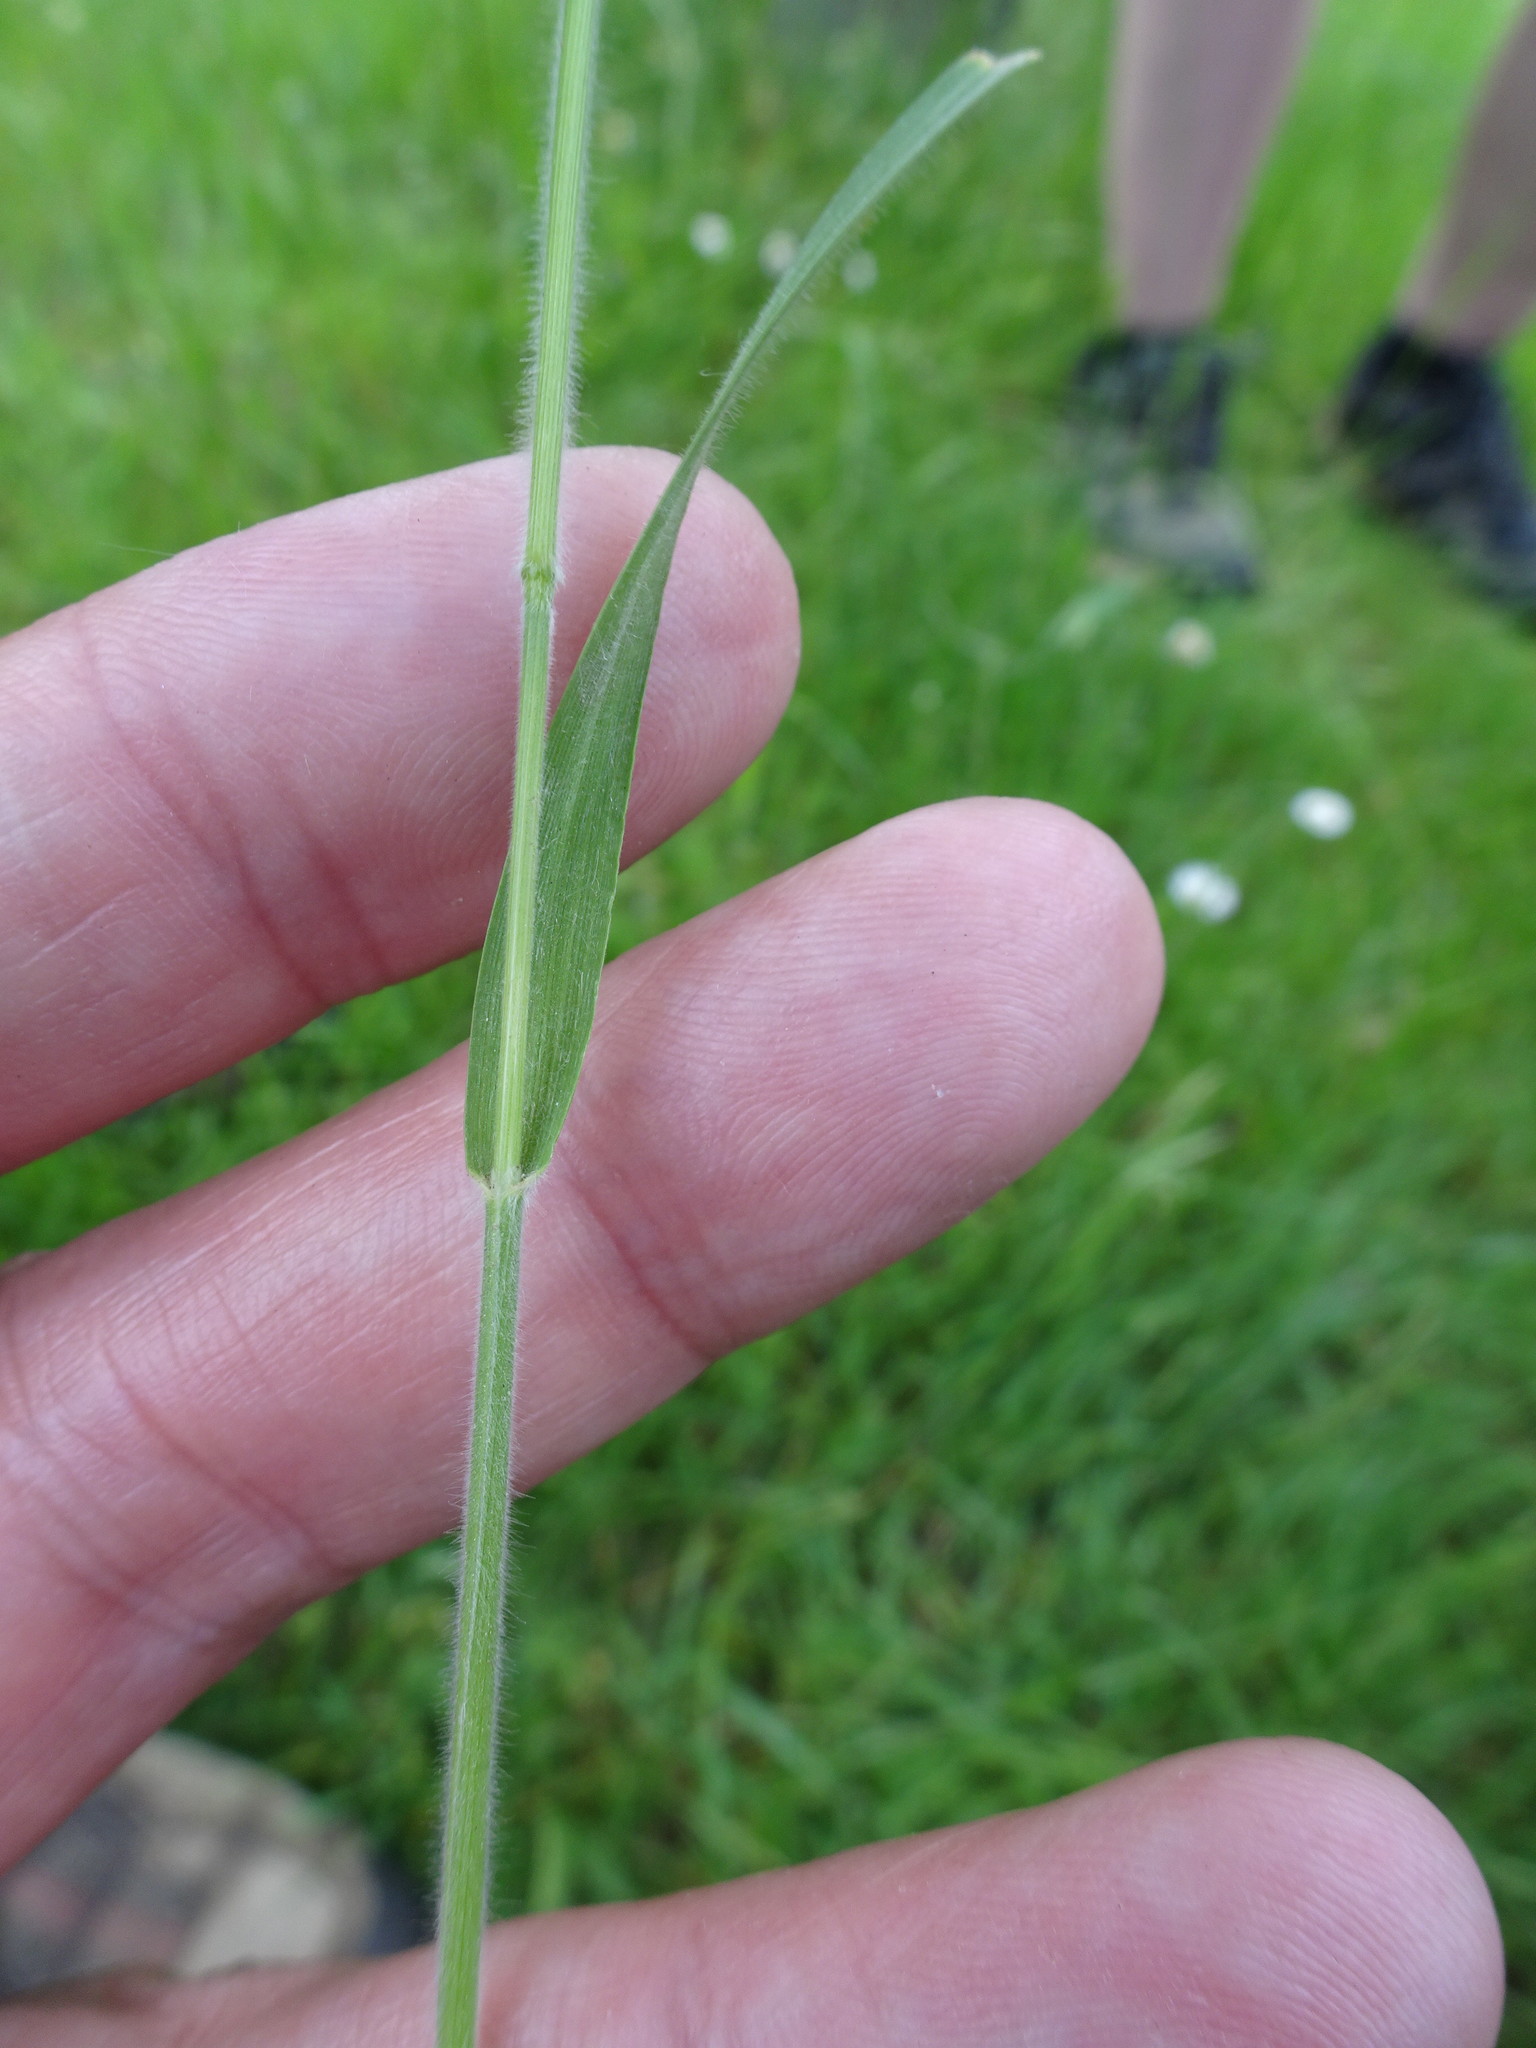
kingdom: Plantae
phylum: Tracheophyta
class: Liliopsida
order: Poales
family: Poaceae
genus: Trisetum
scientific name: Trisetum flavescens
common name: Yellow oat-grass
